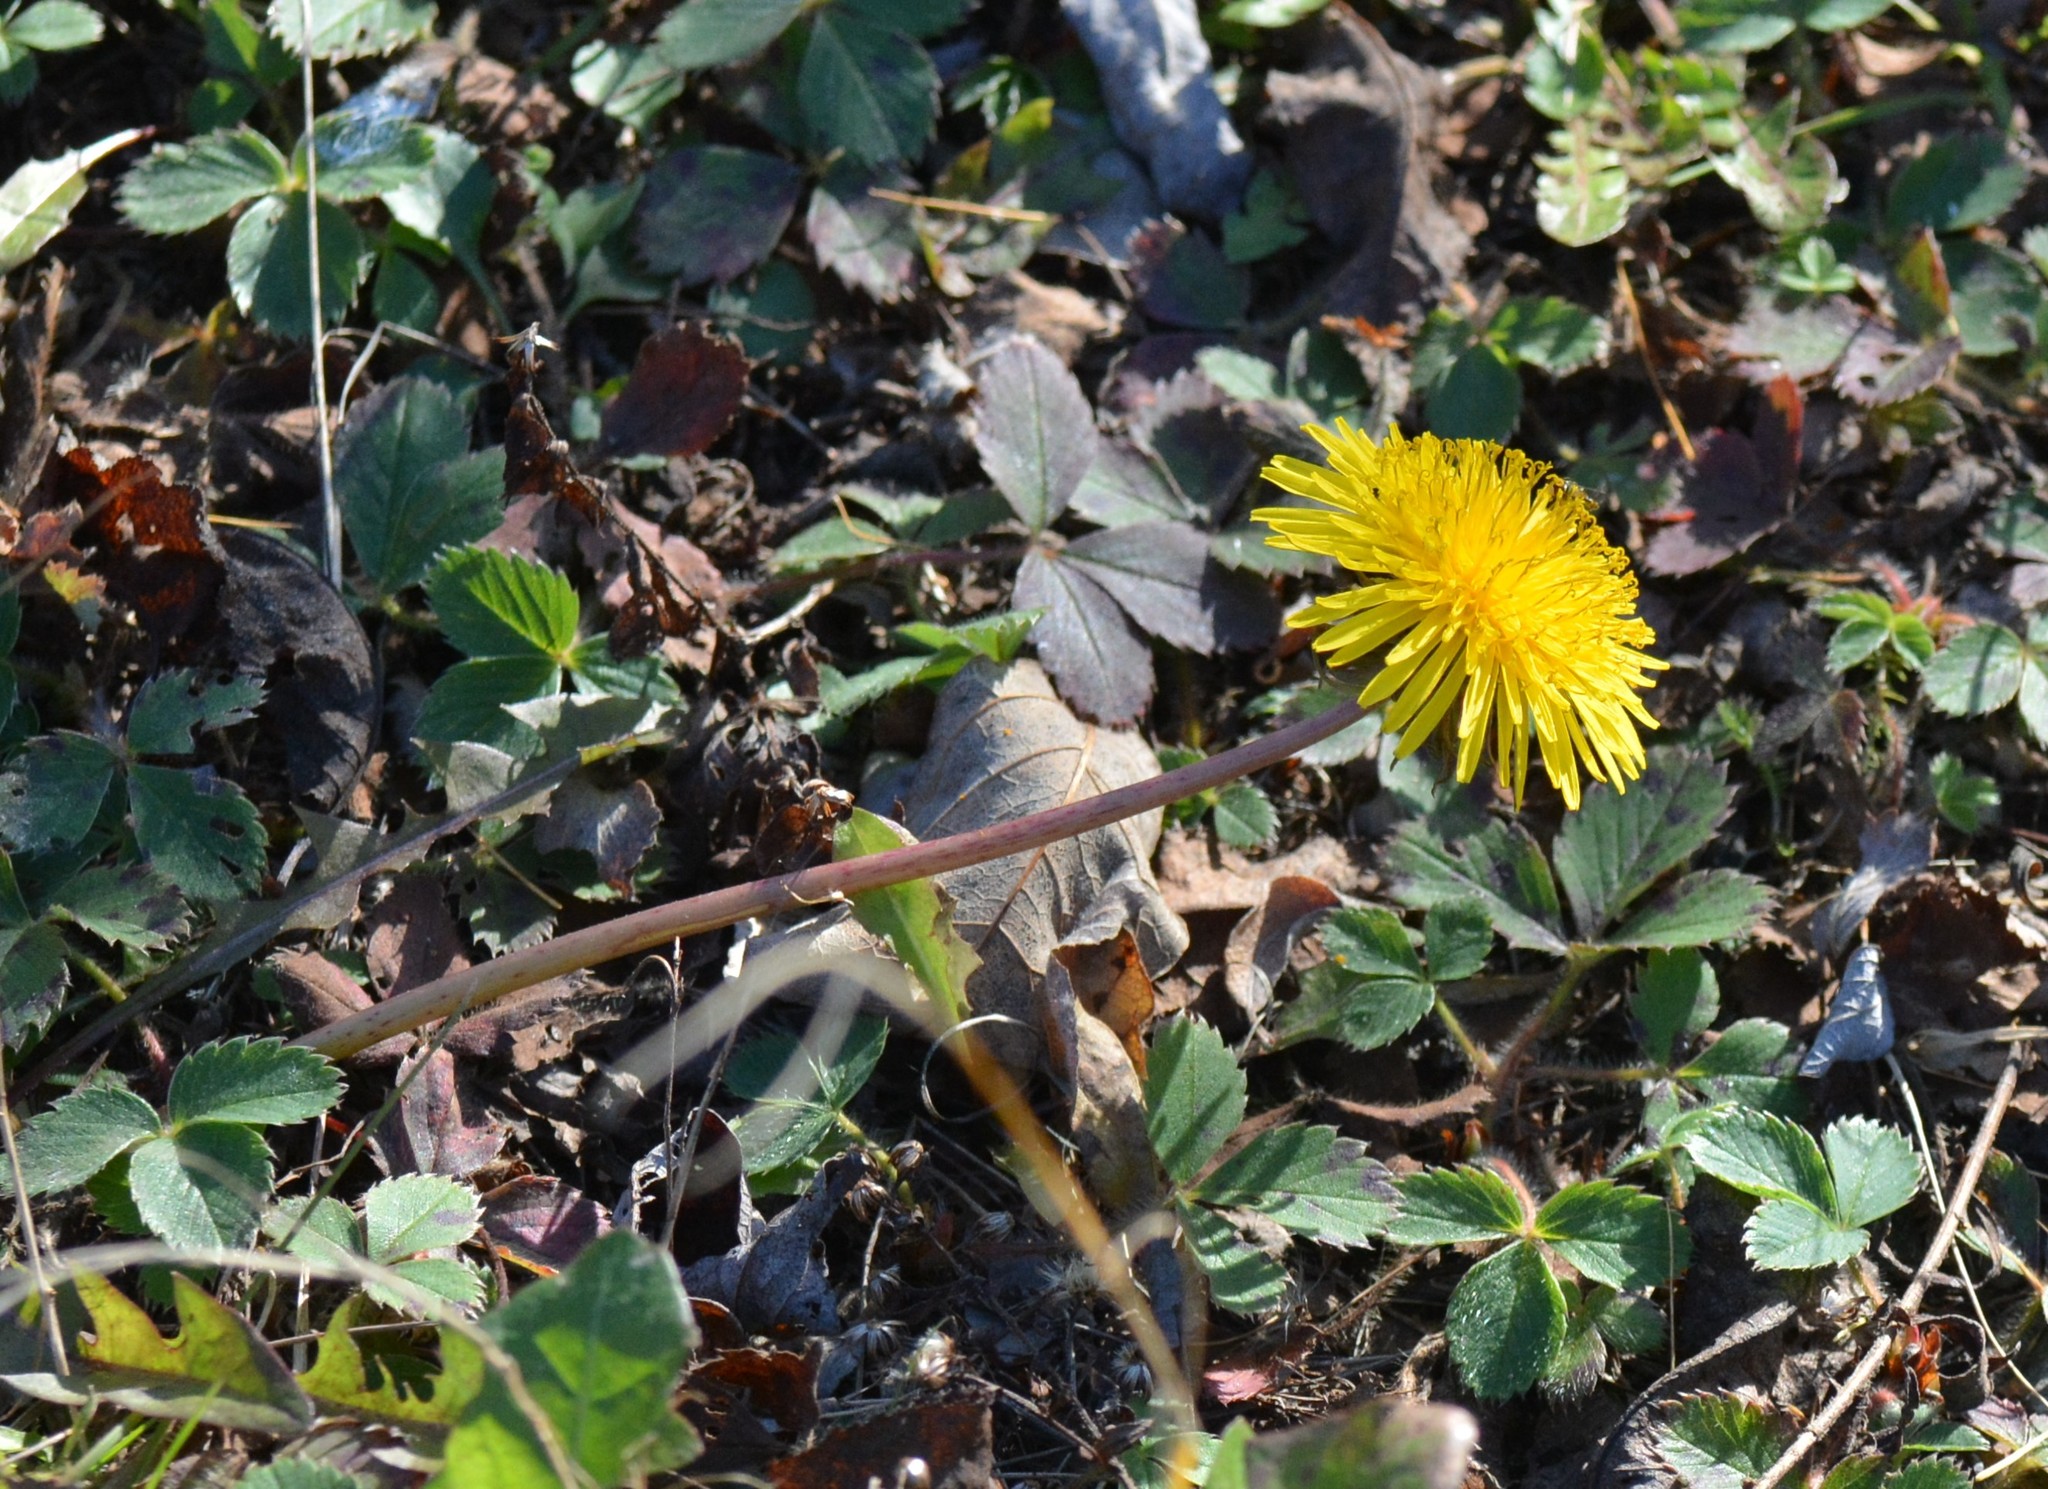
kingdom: Plantae
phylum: Tracheophyta
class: Magnoliopsida
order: Asterales
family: Asteraceae
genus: Taraxacum
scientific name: Taraxacum officinale
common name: Common dandelion
